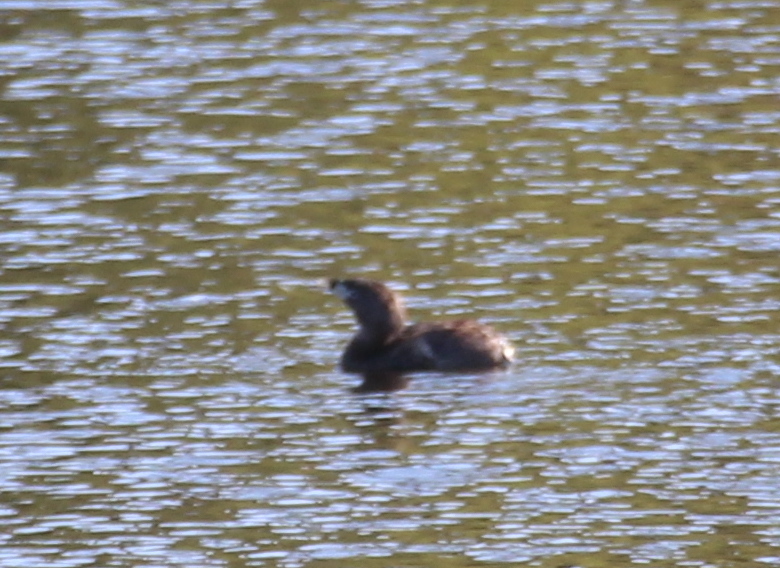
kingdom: Animalia
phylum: Chordata
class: Aves
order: Podicipediformes
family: Podicipedidae
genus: Podilymbus
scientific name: Podilymbus podiceps
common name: Pied-billed grebe
